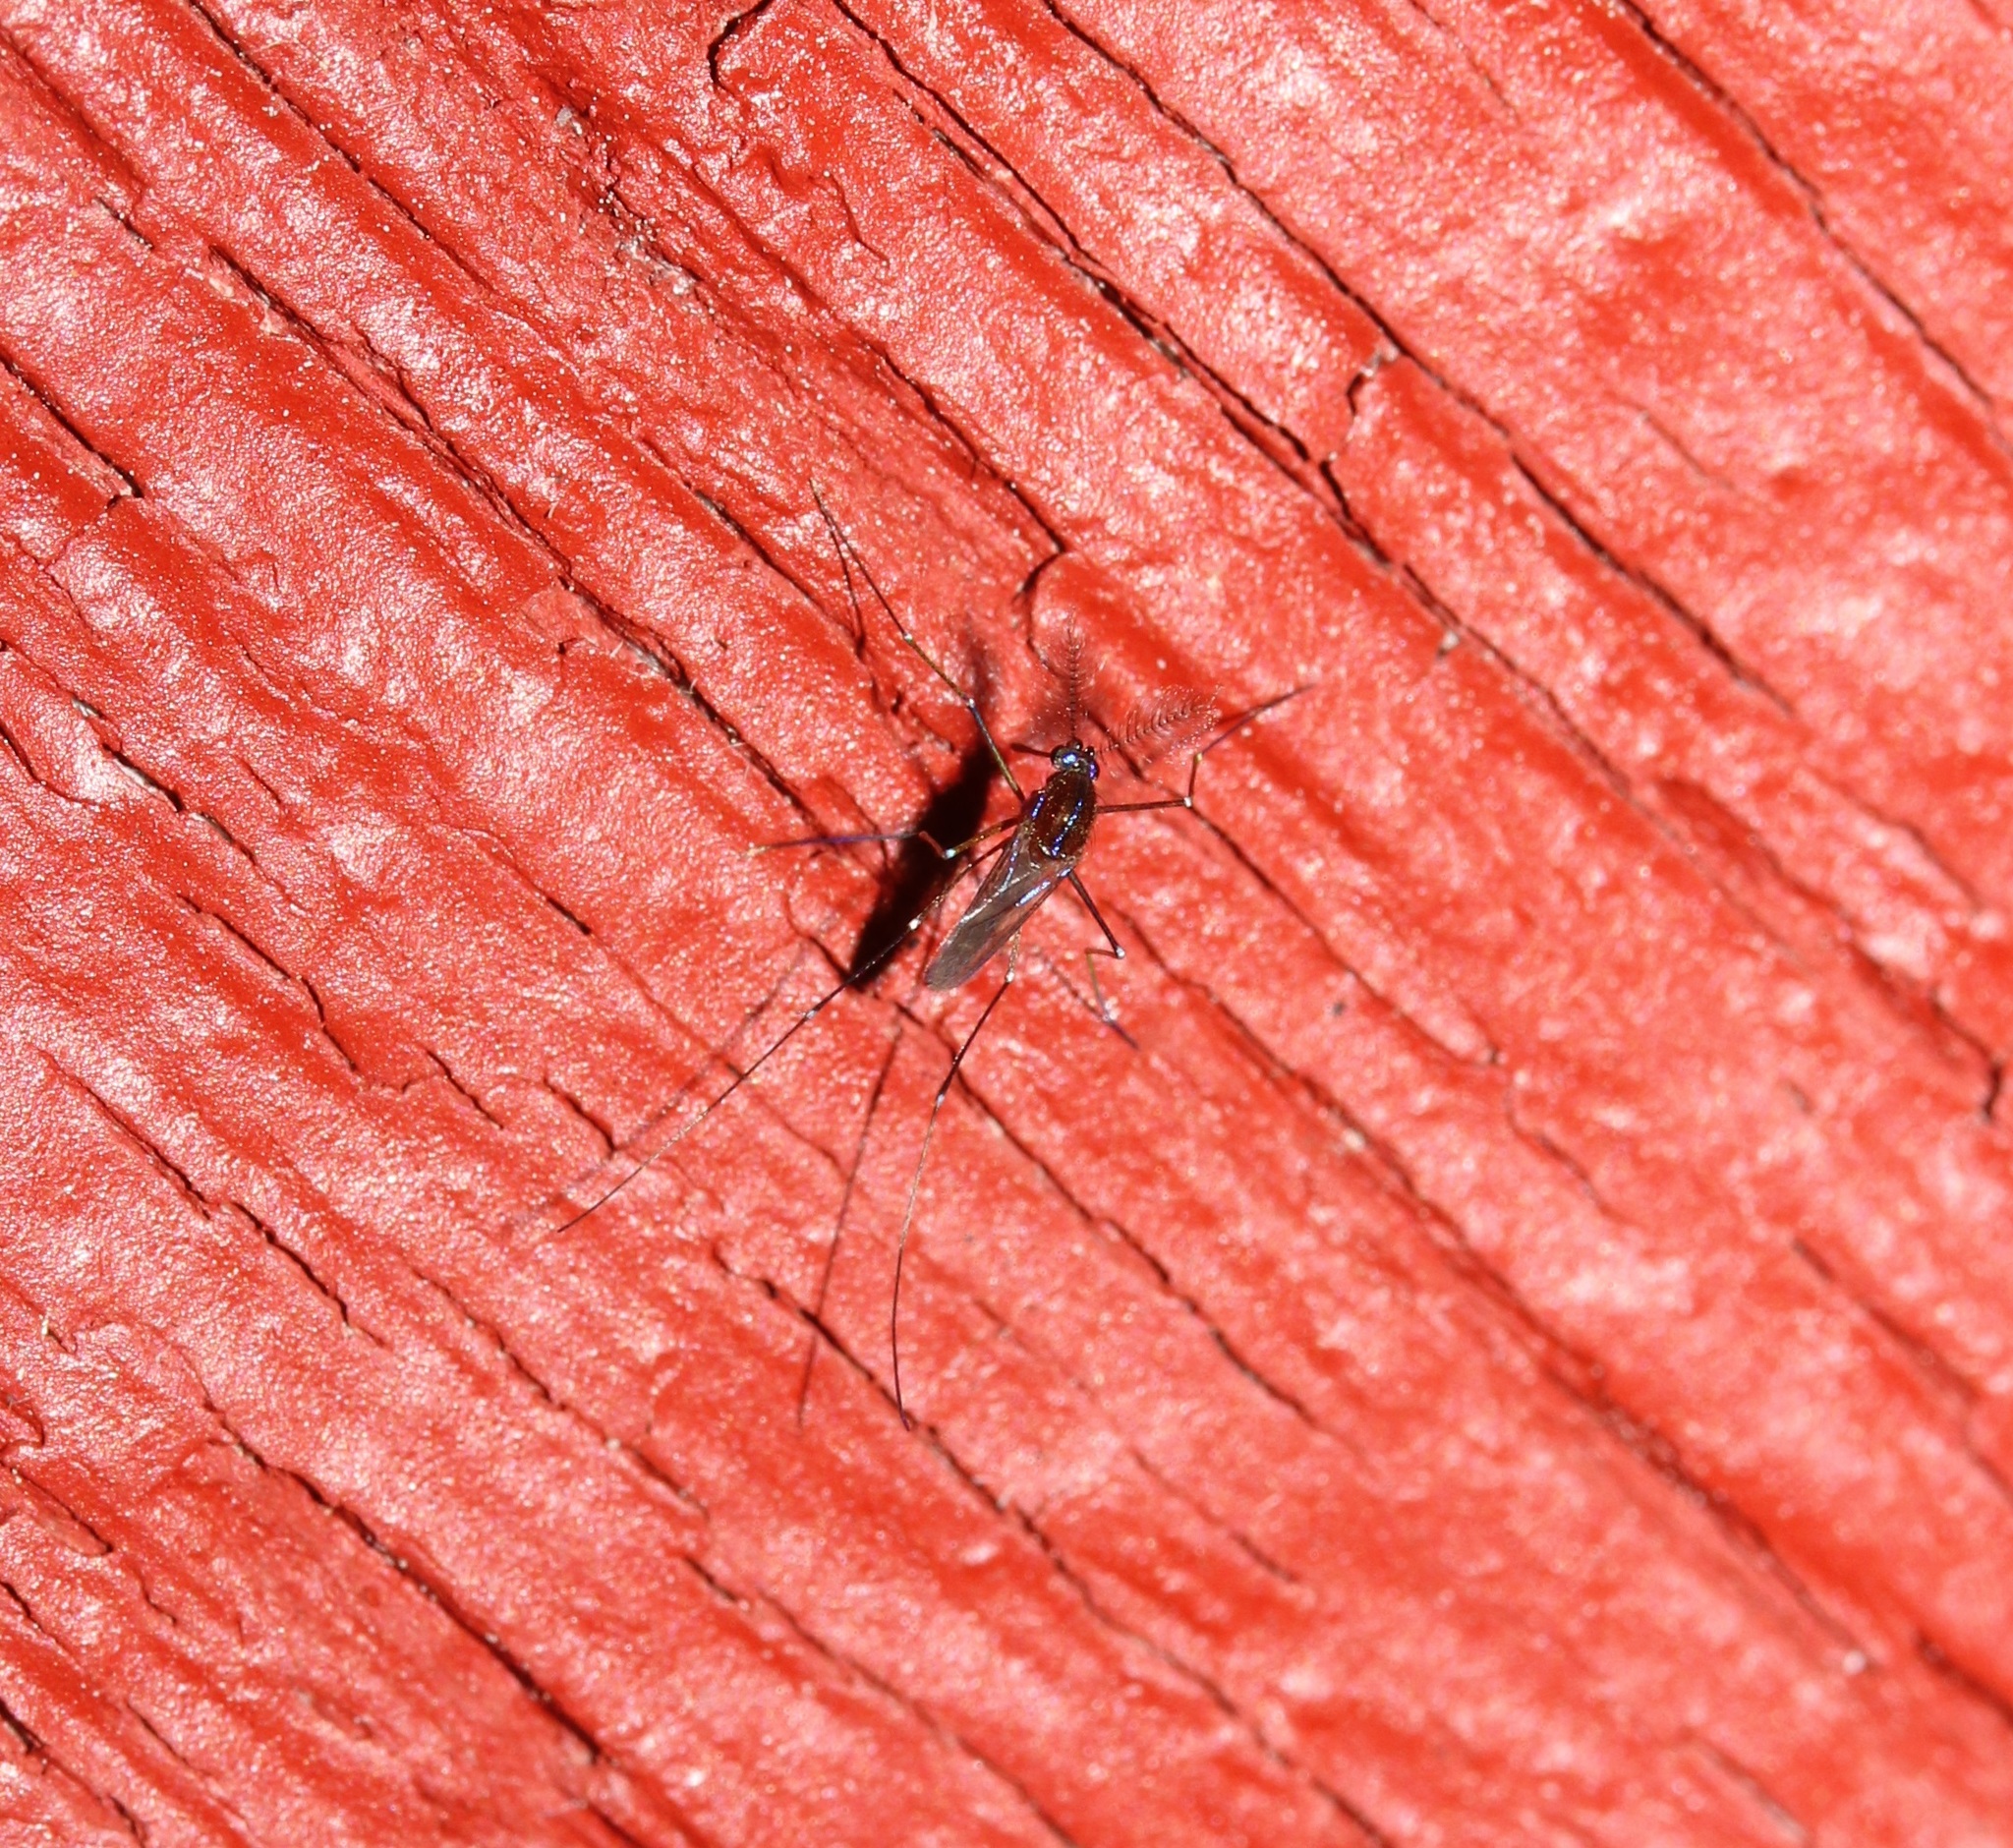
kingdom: Animalia
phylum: Arthropoda
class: Insecta
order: Diptera
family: Culicidae
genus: Uranotaenia
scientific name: Uranotaenia sapphirina
